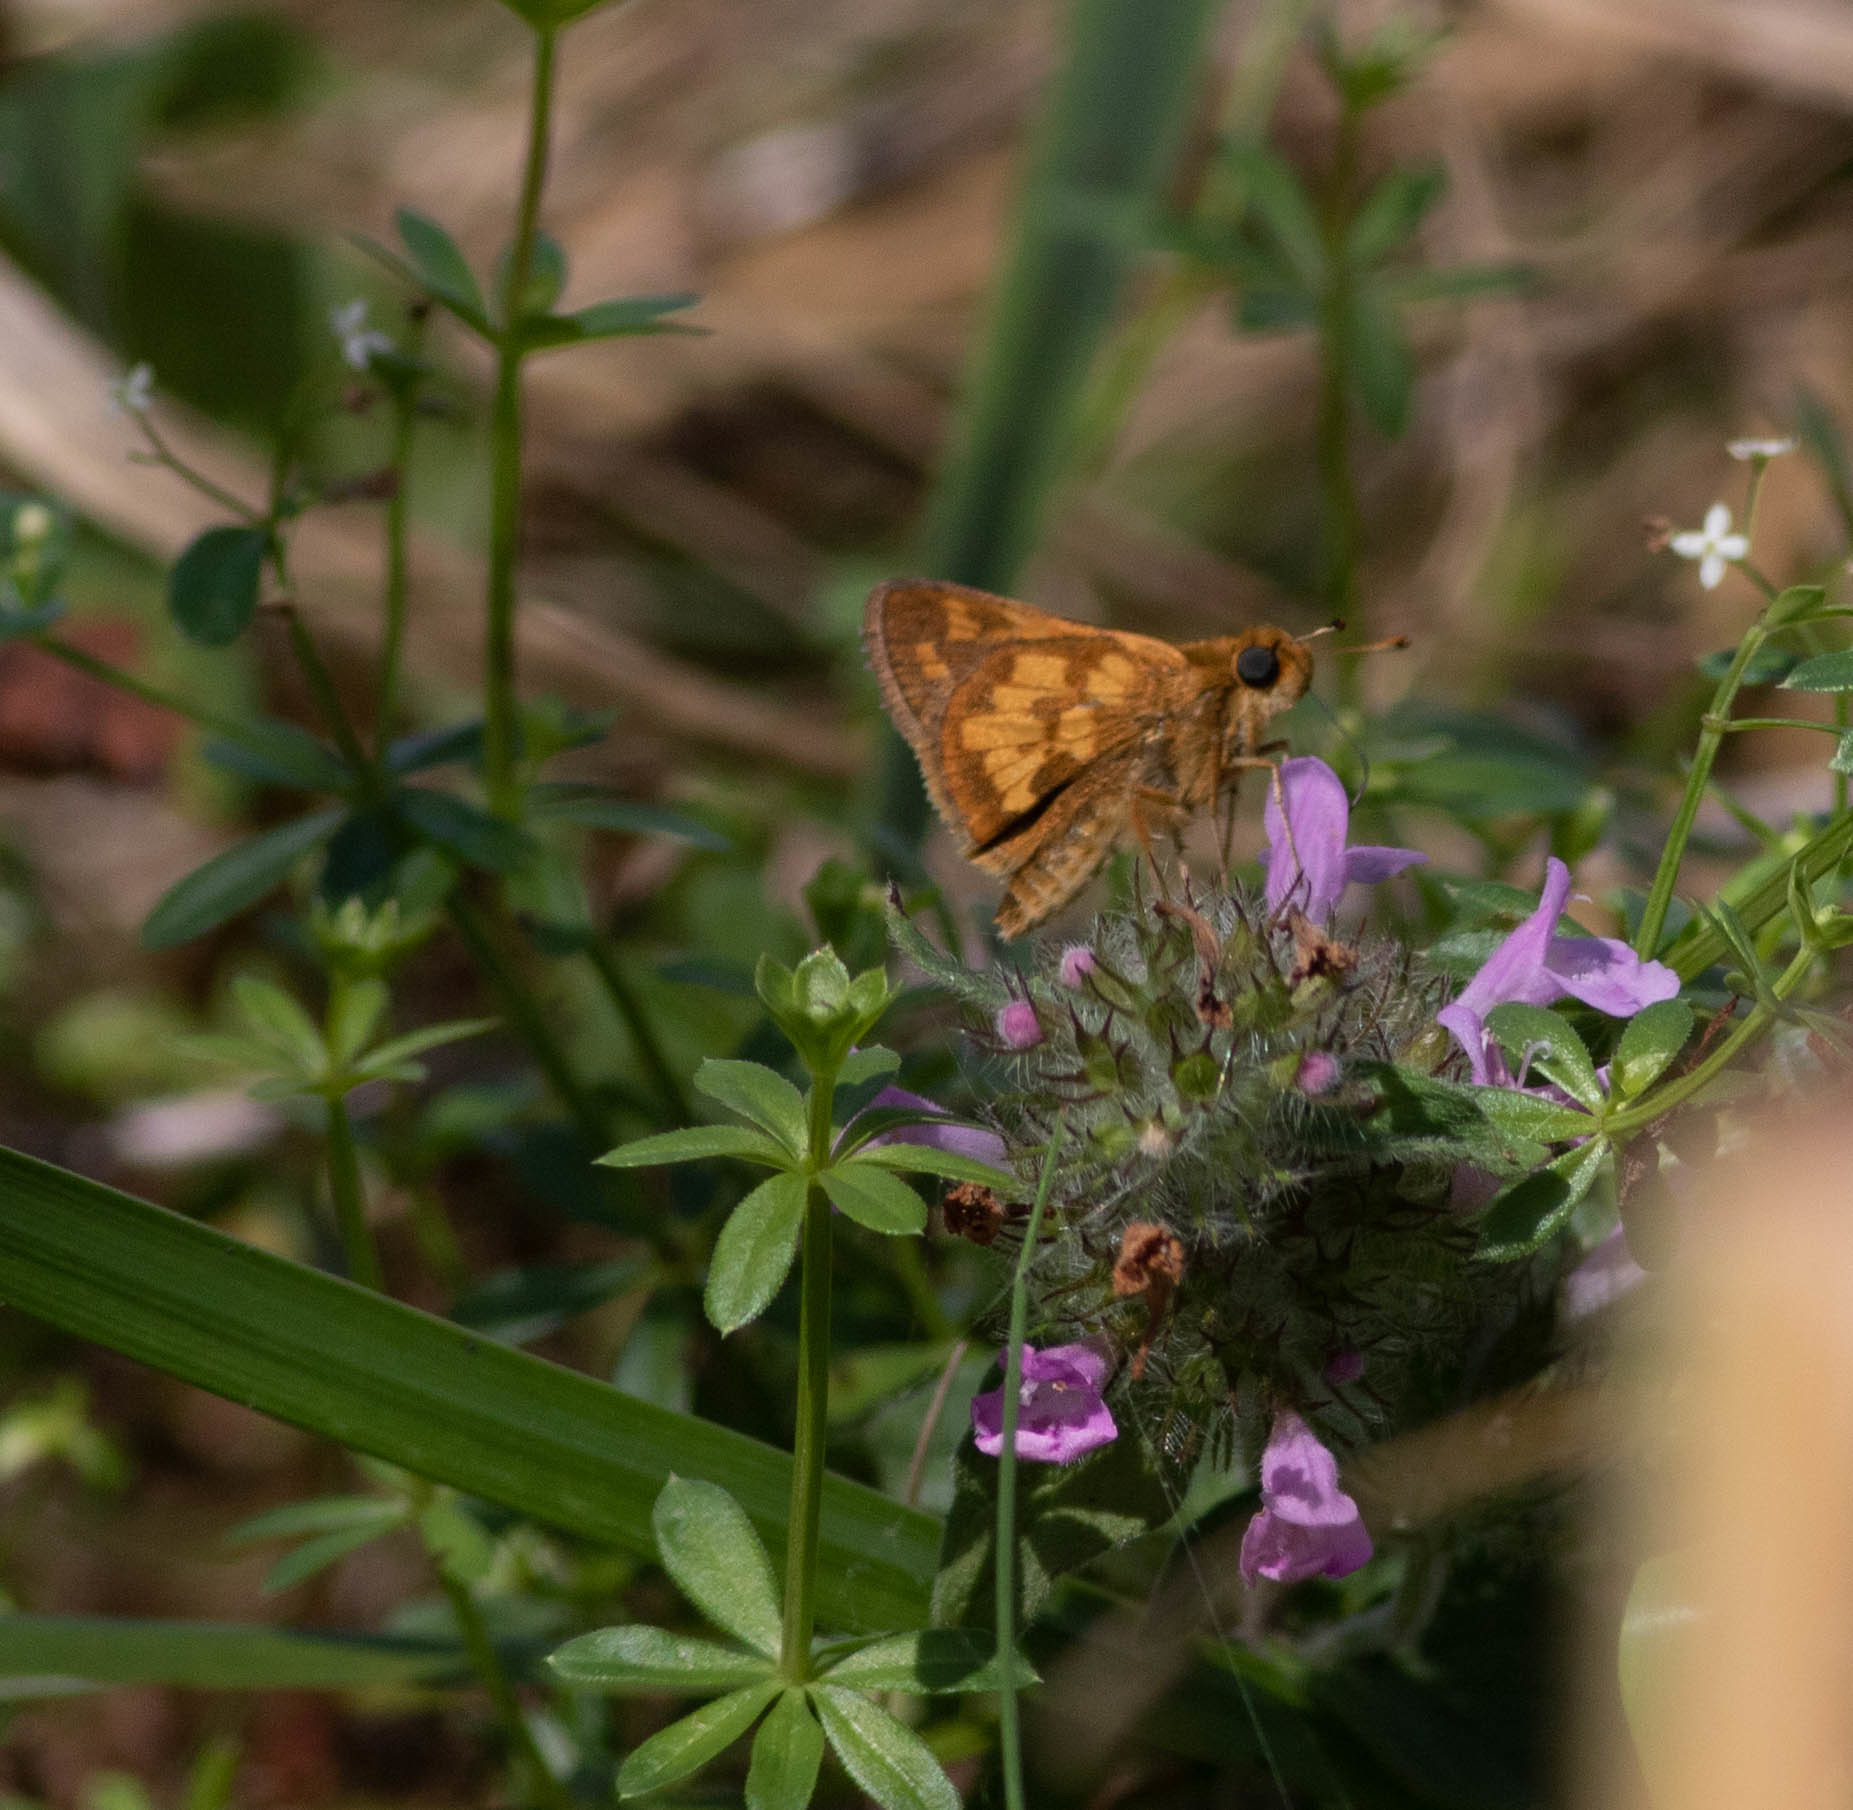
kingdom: Animalia
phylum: Arthropoda
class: Insecta
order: Lepidoptera
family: Hesperiidae
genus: Polites
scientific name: Polites coras
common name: Peck's skipper
